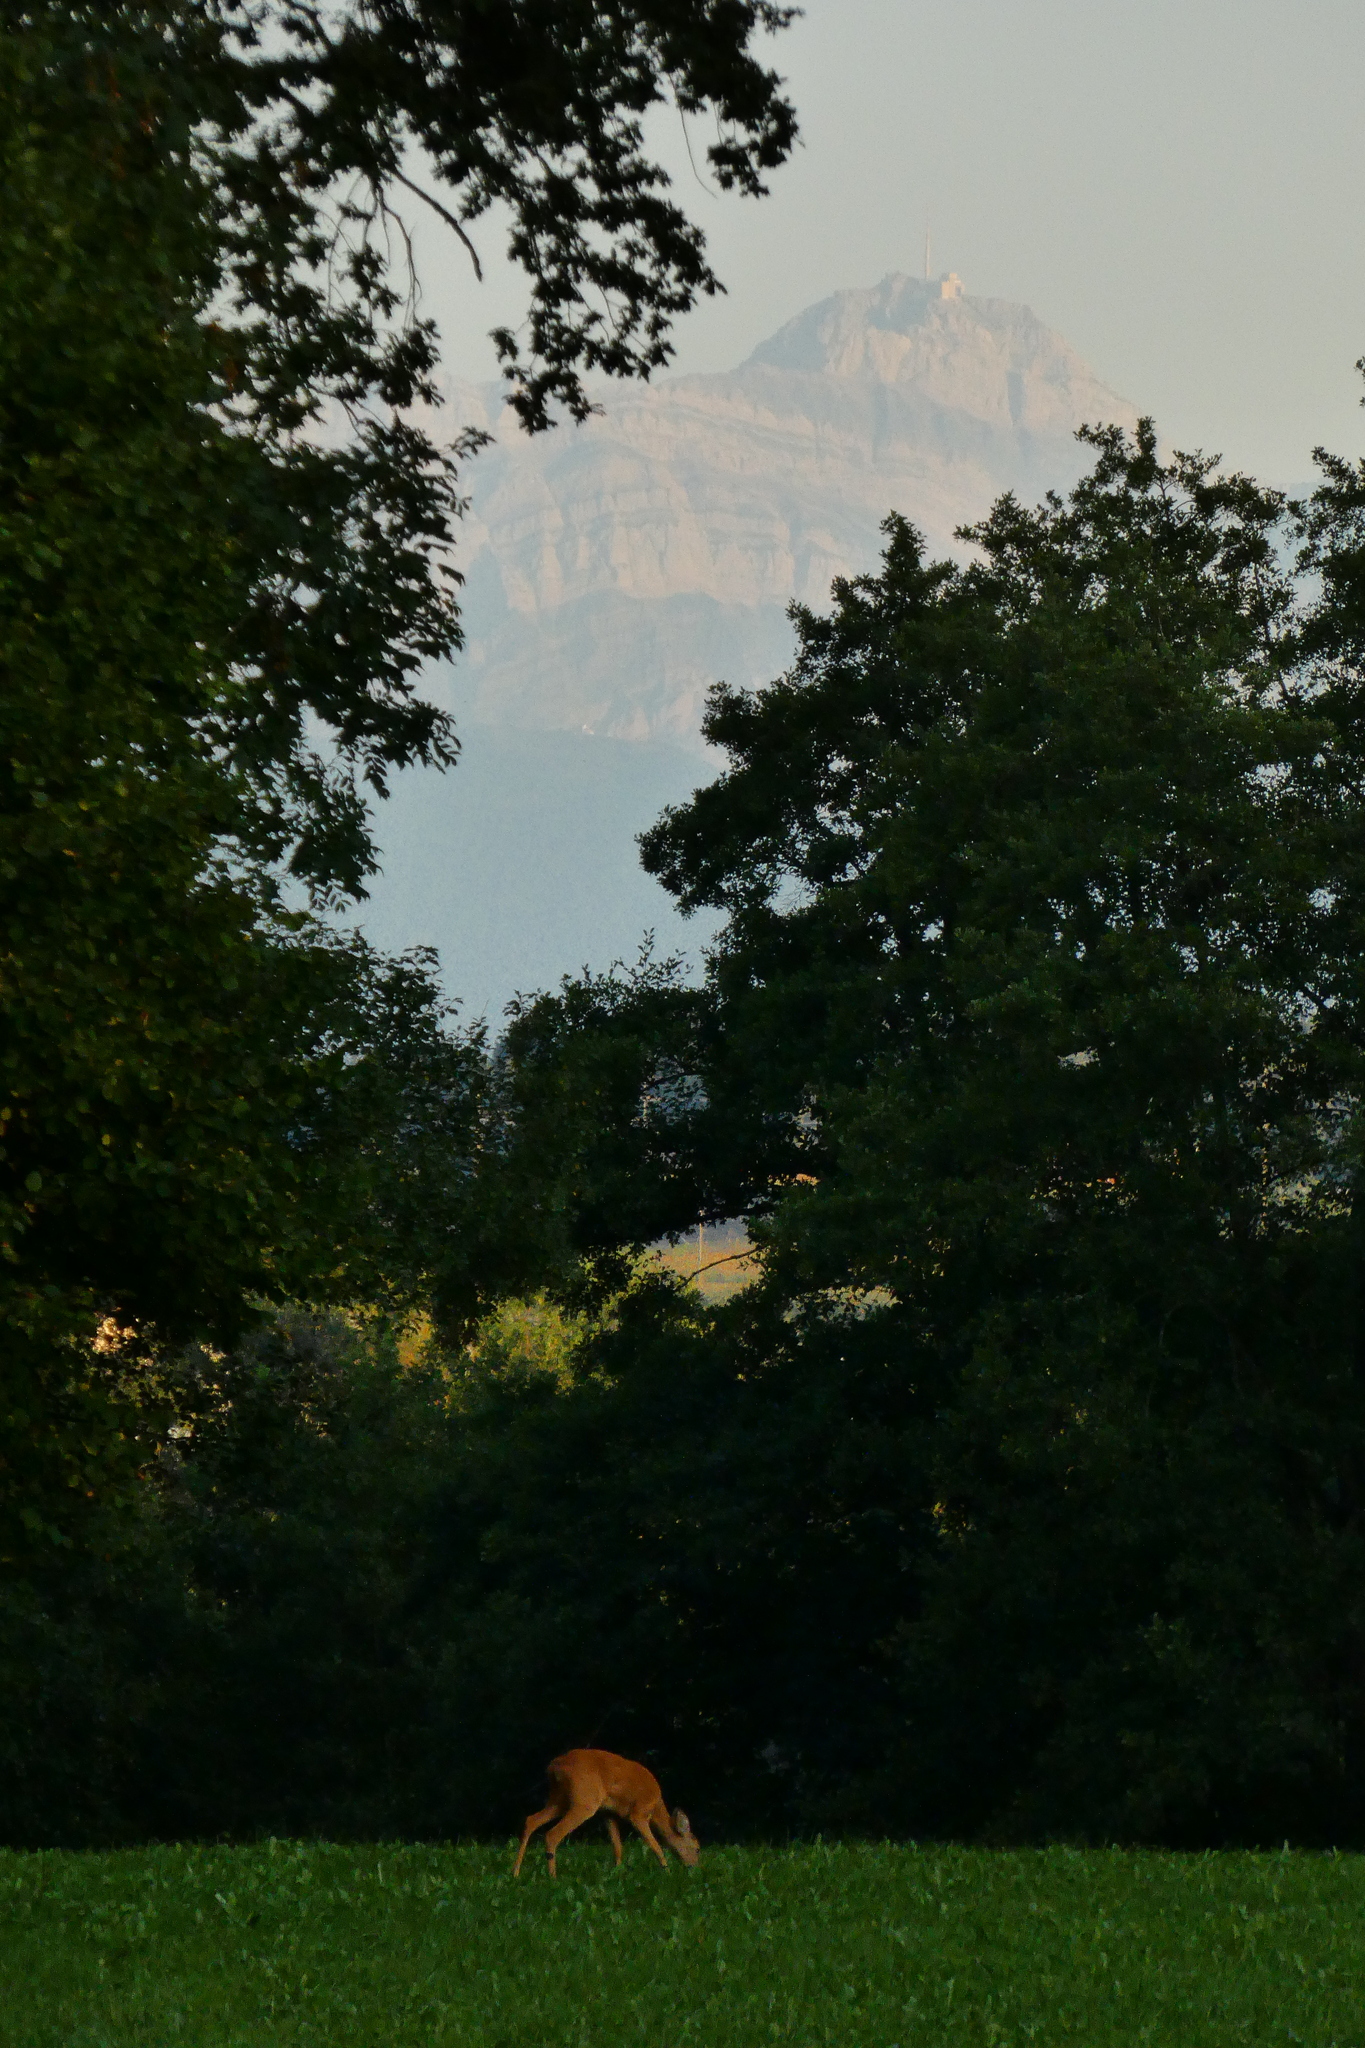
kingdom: Animalia
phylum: Chordata
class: Mammalia
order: Artiodactyla
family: Cervidae
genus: Capreolus
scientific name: Capreolus capreolus
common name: Western roe deer
